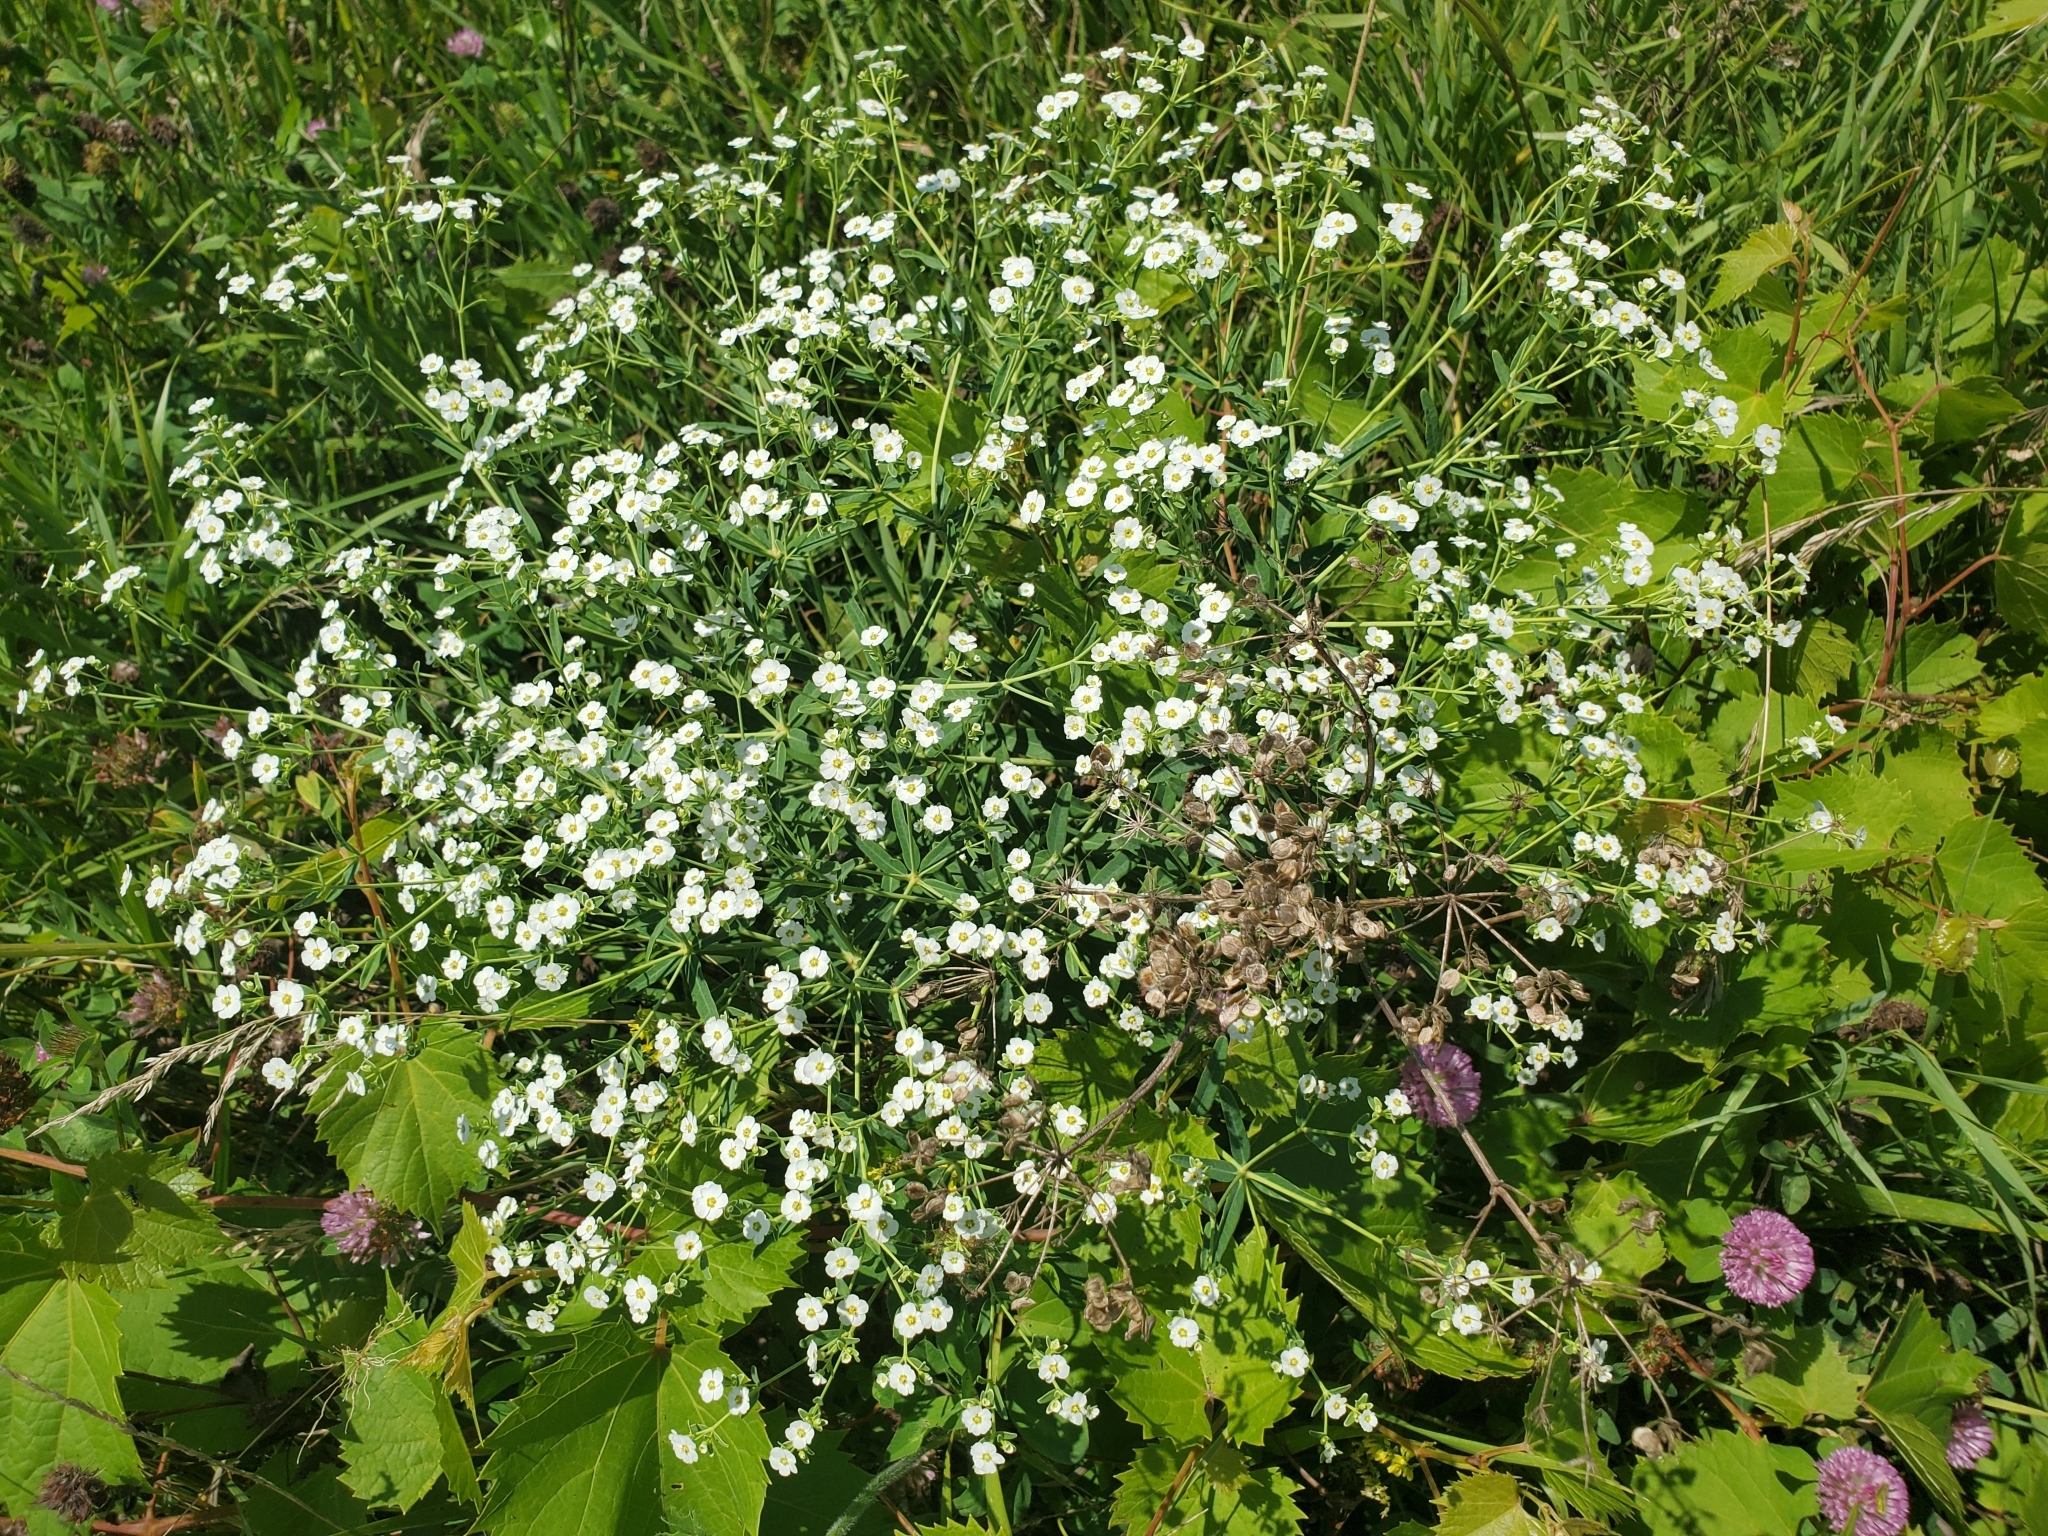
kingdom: Plantae
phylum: Tracheophyta
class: Magnoliopsida
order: Malpighiales
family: Euphorbiaceae
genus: Euphorbia
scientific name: Euphorbia corollata
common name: Flowering spurge
